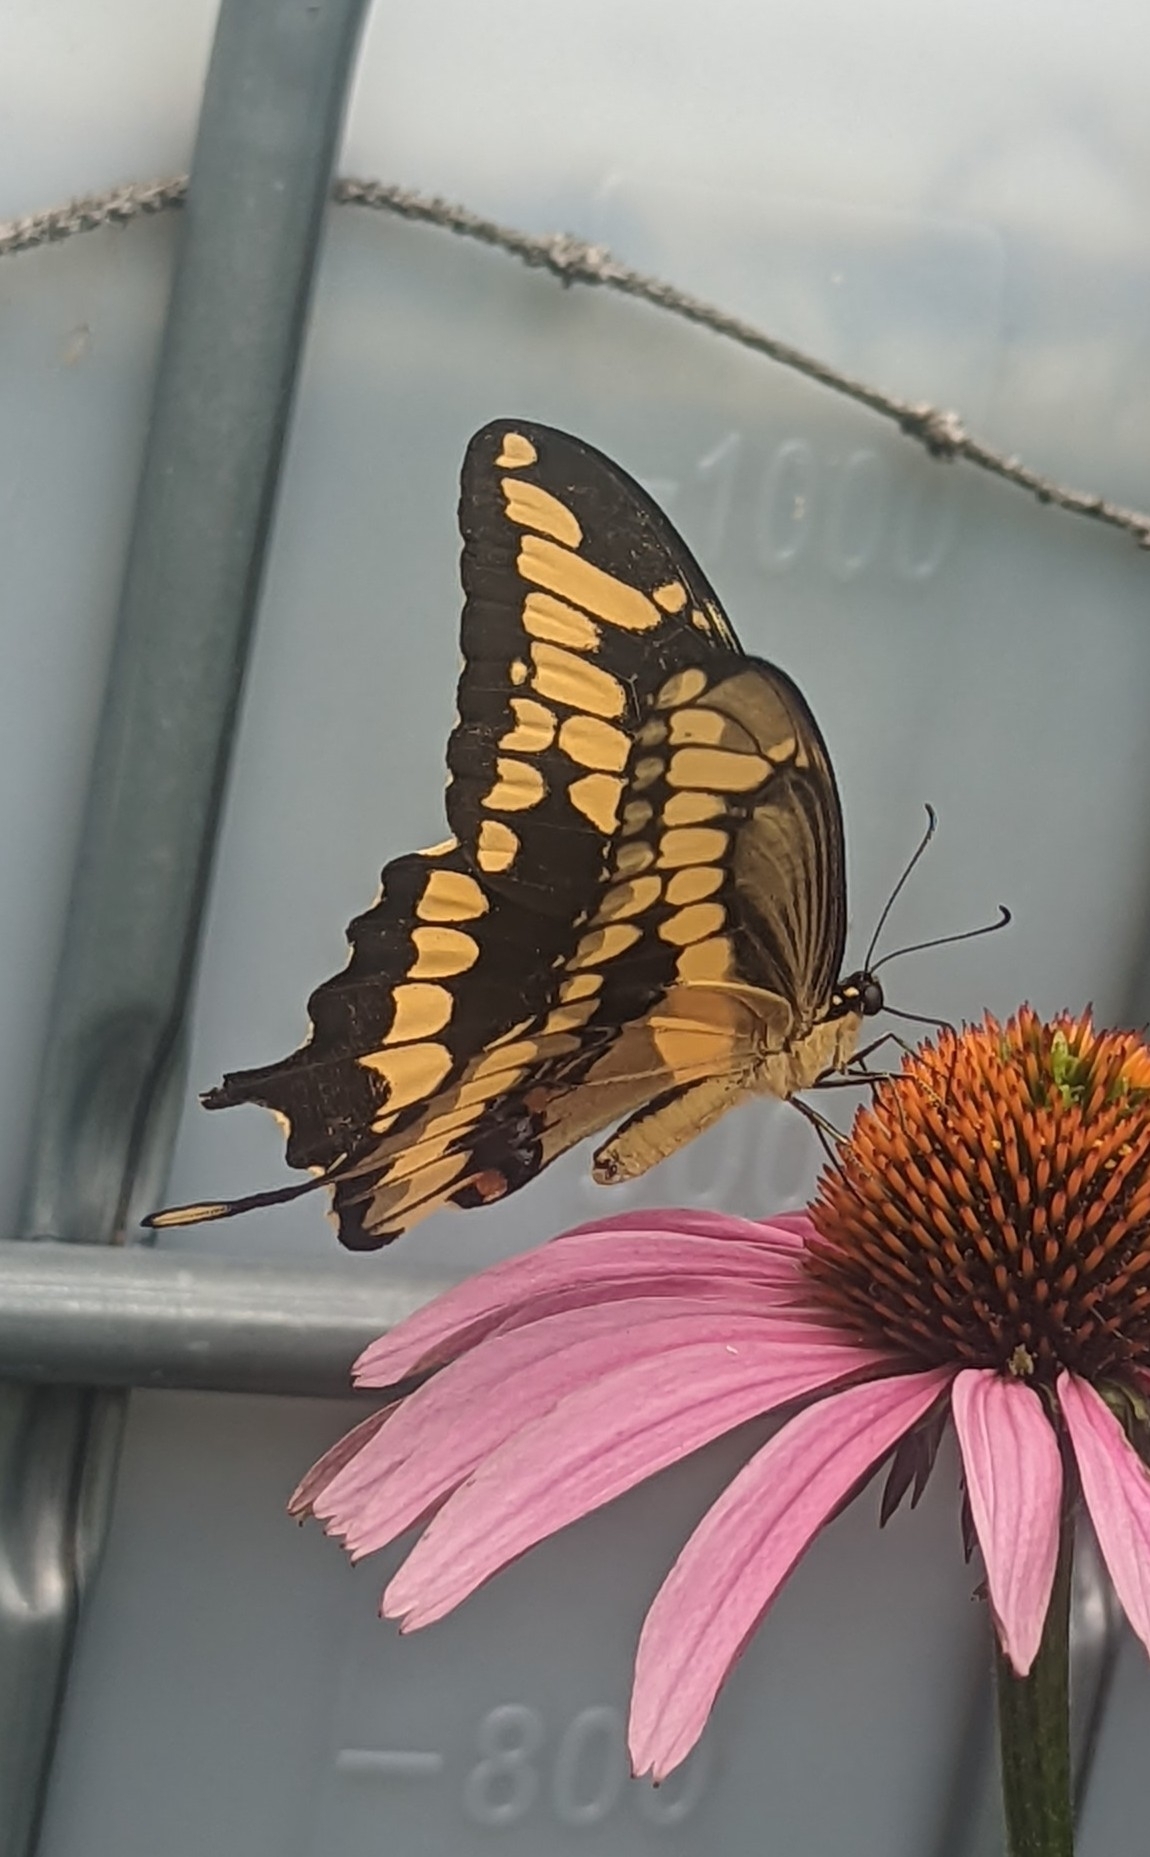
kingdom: Animalia
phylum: Arthropoda
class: Insecta
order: Lepidoptera
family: Papilionidae
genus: Papilio
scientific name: Papilio cresphontes
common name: Giant swallowtail
